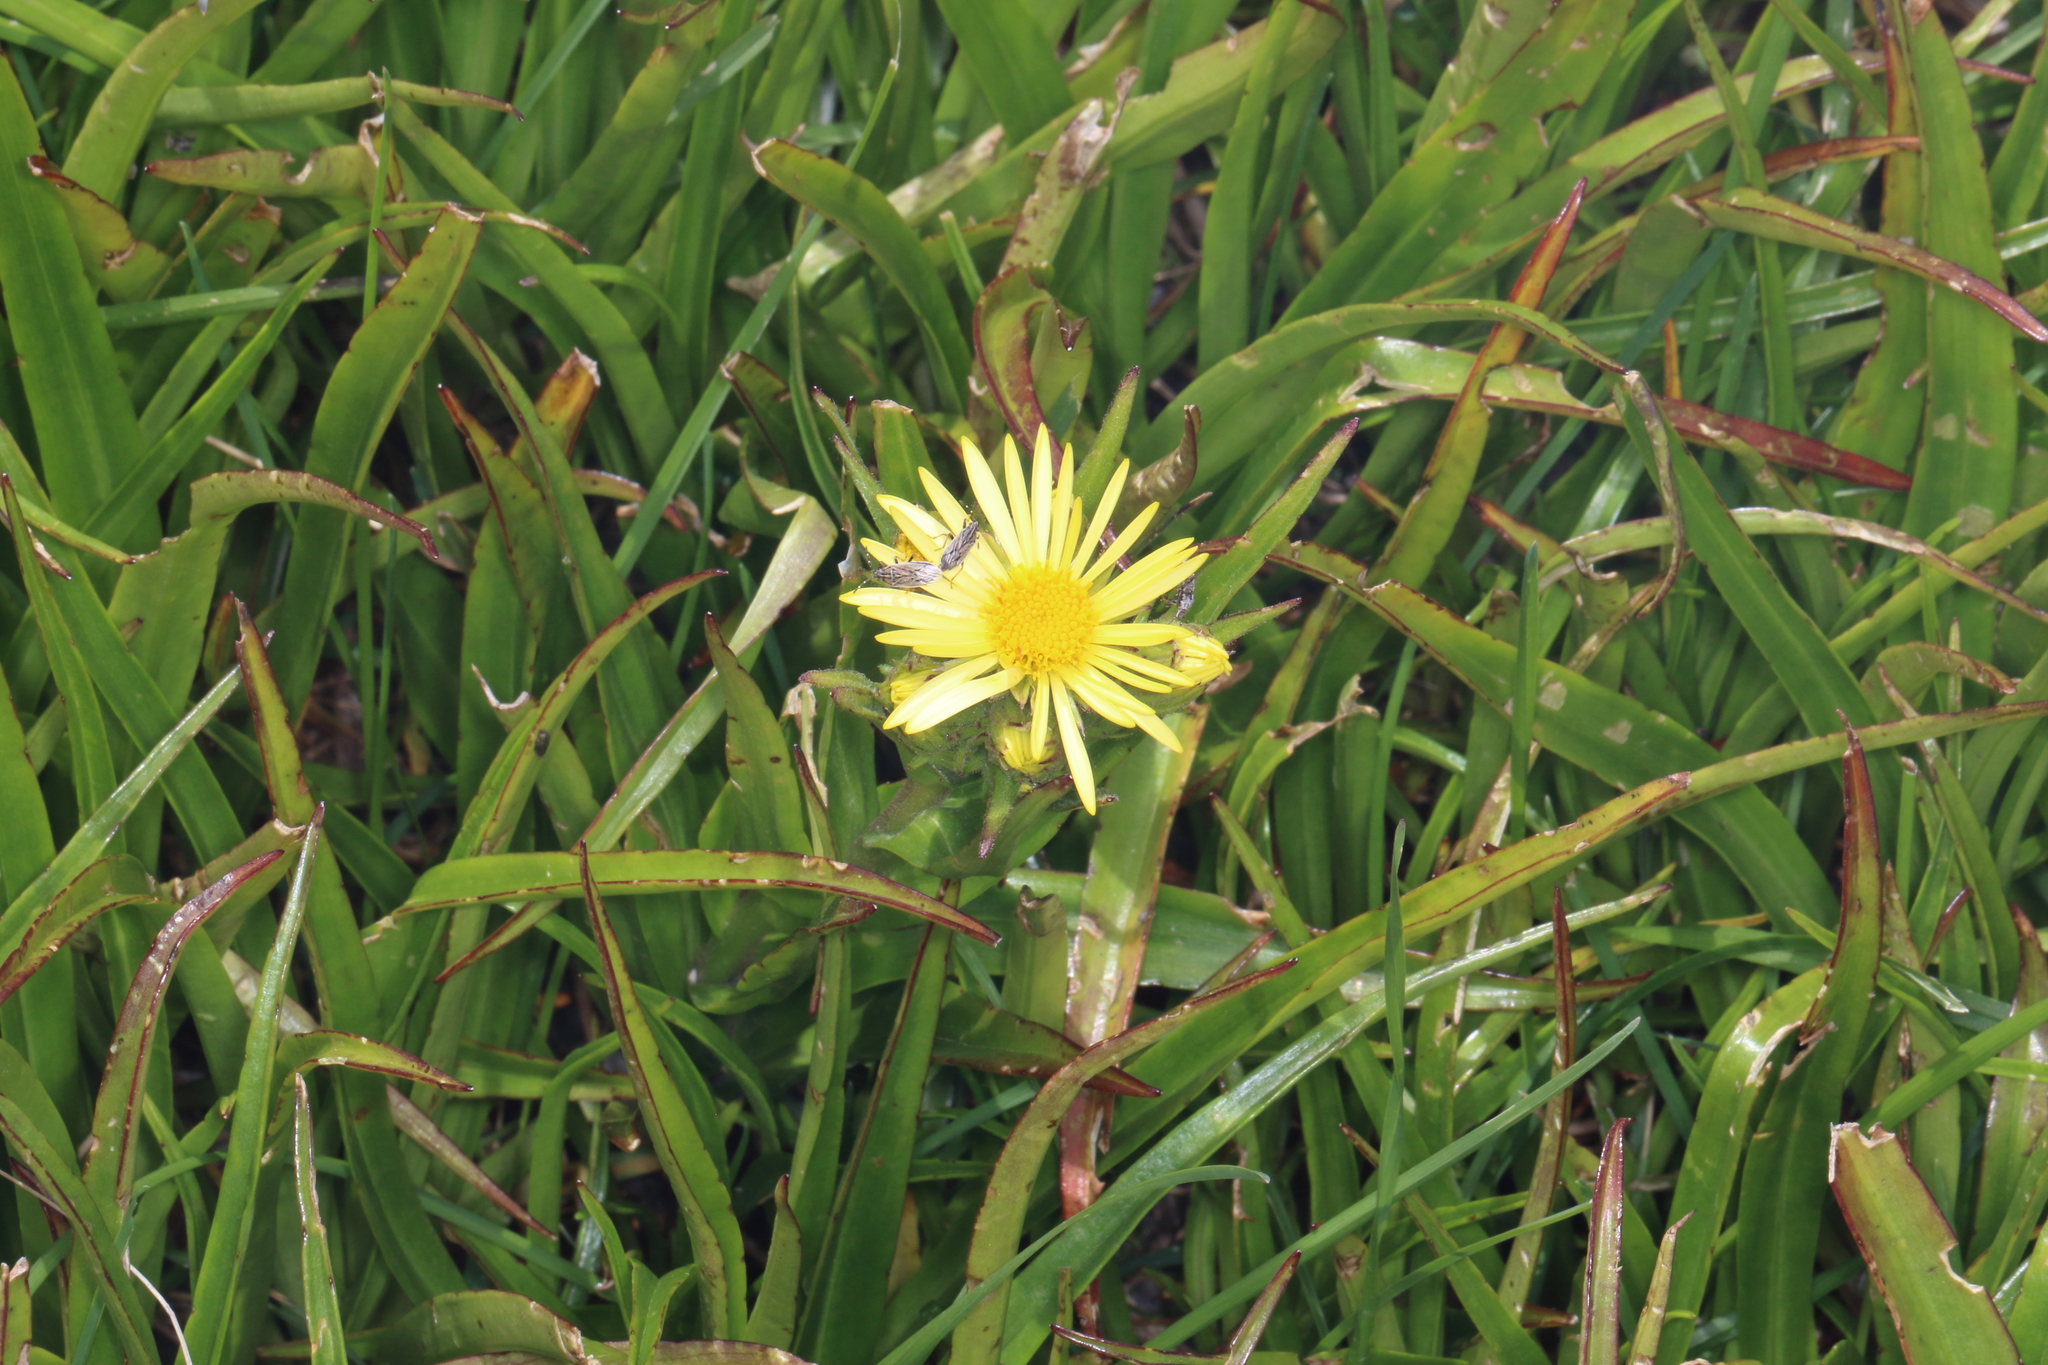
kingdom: Plantae
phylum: Tracheophyta
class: Magnoliopsida
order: Asterales
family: Asteraceae
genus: Dolichoglottis
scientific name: Dolichoglottis
